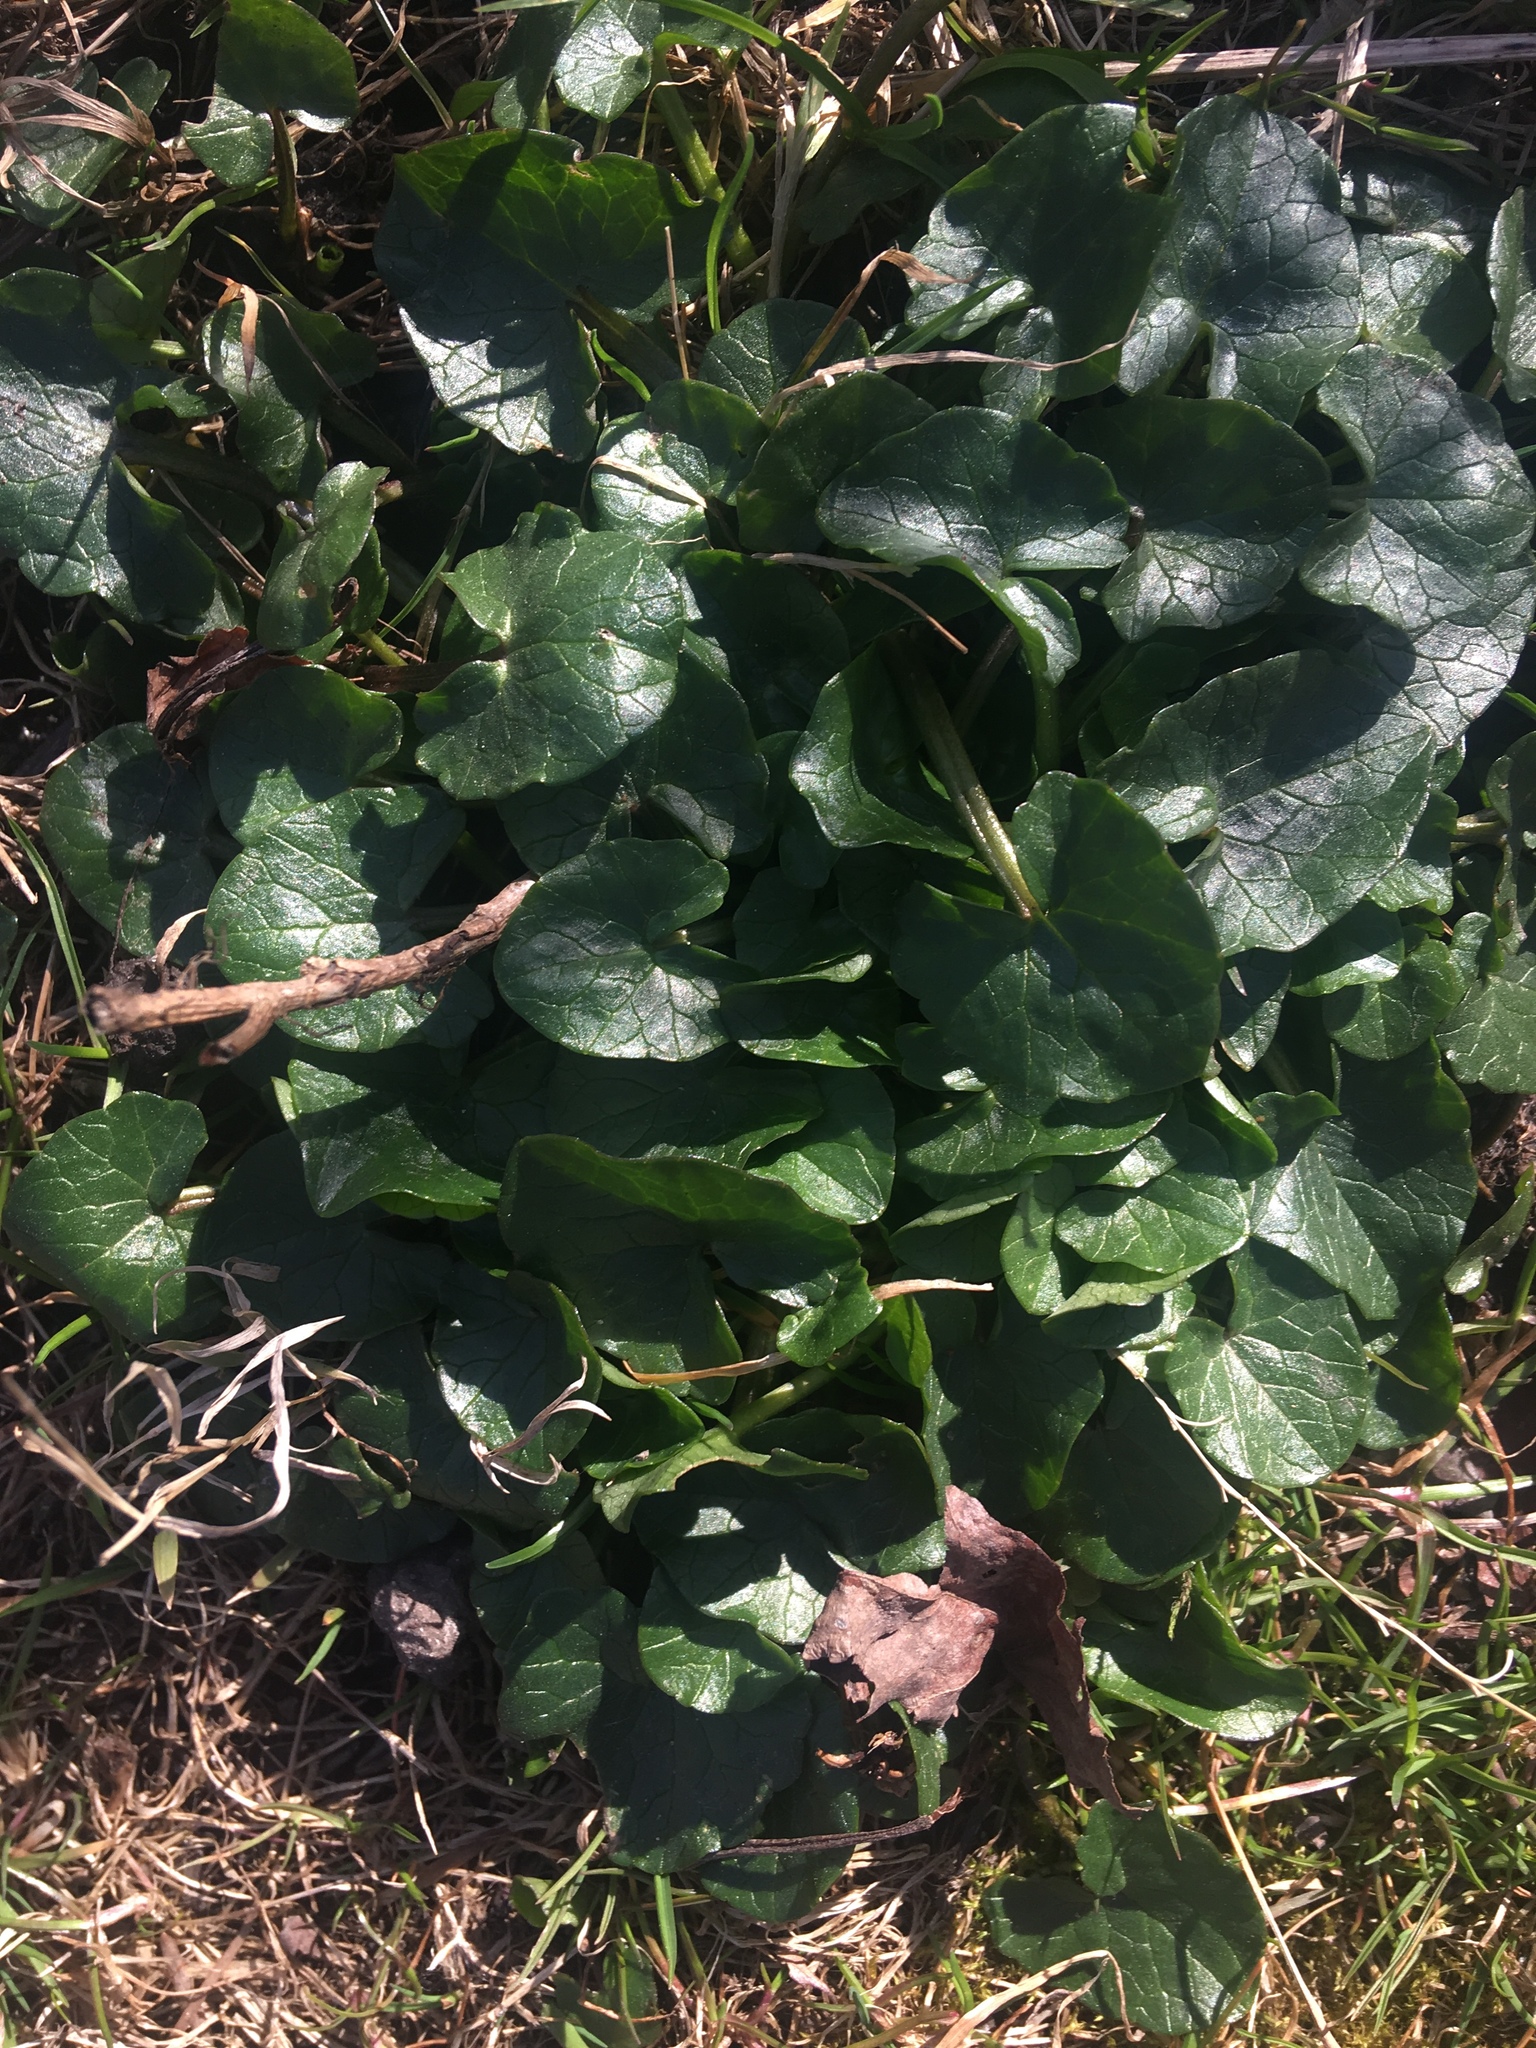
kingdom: Plantae
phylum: Tracheophyta
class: Magnoliopsida
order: Ranunculales
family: Ranunculaceae
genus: Ficaria
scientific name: Ficaria verna
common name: Lesser celandine
